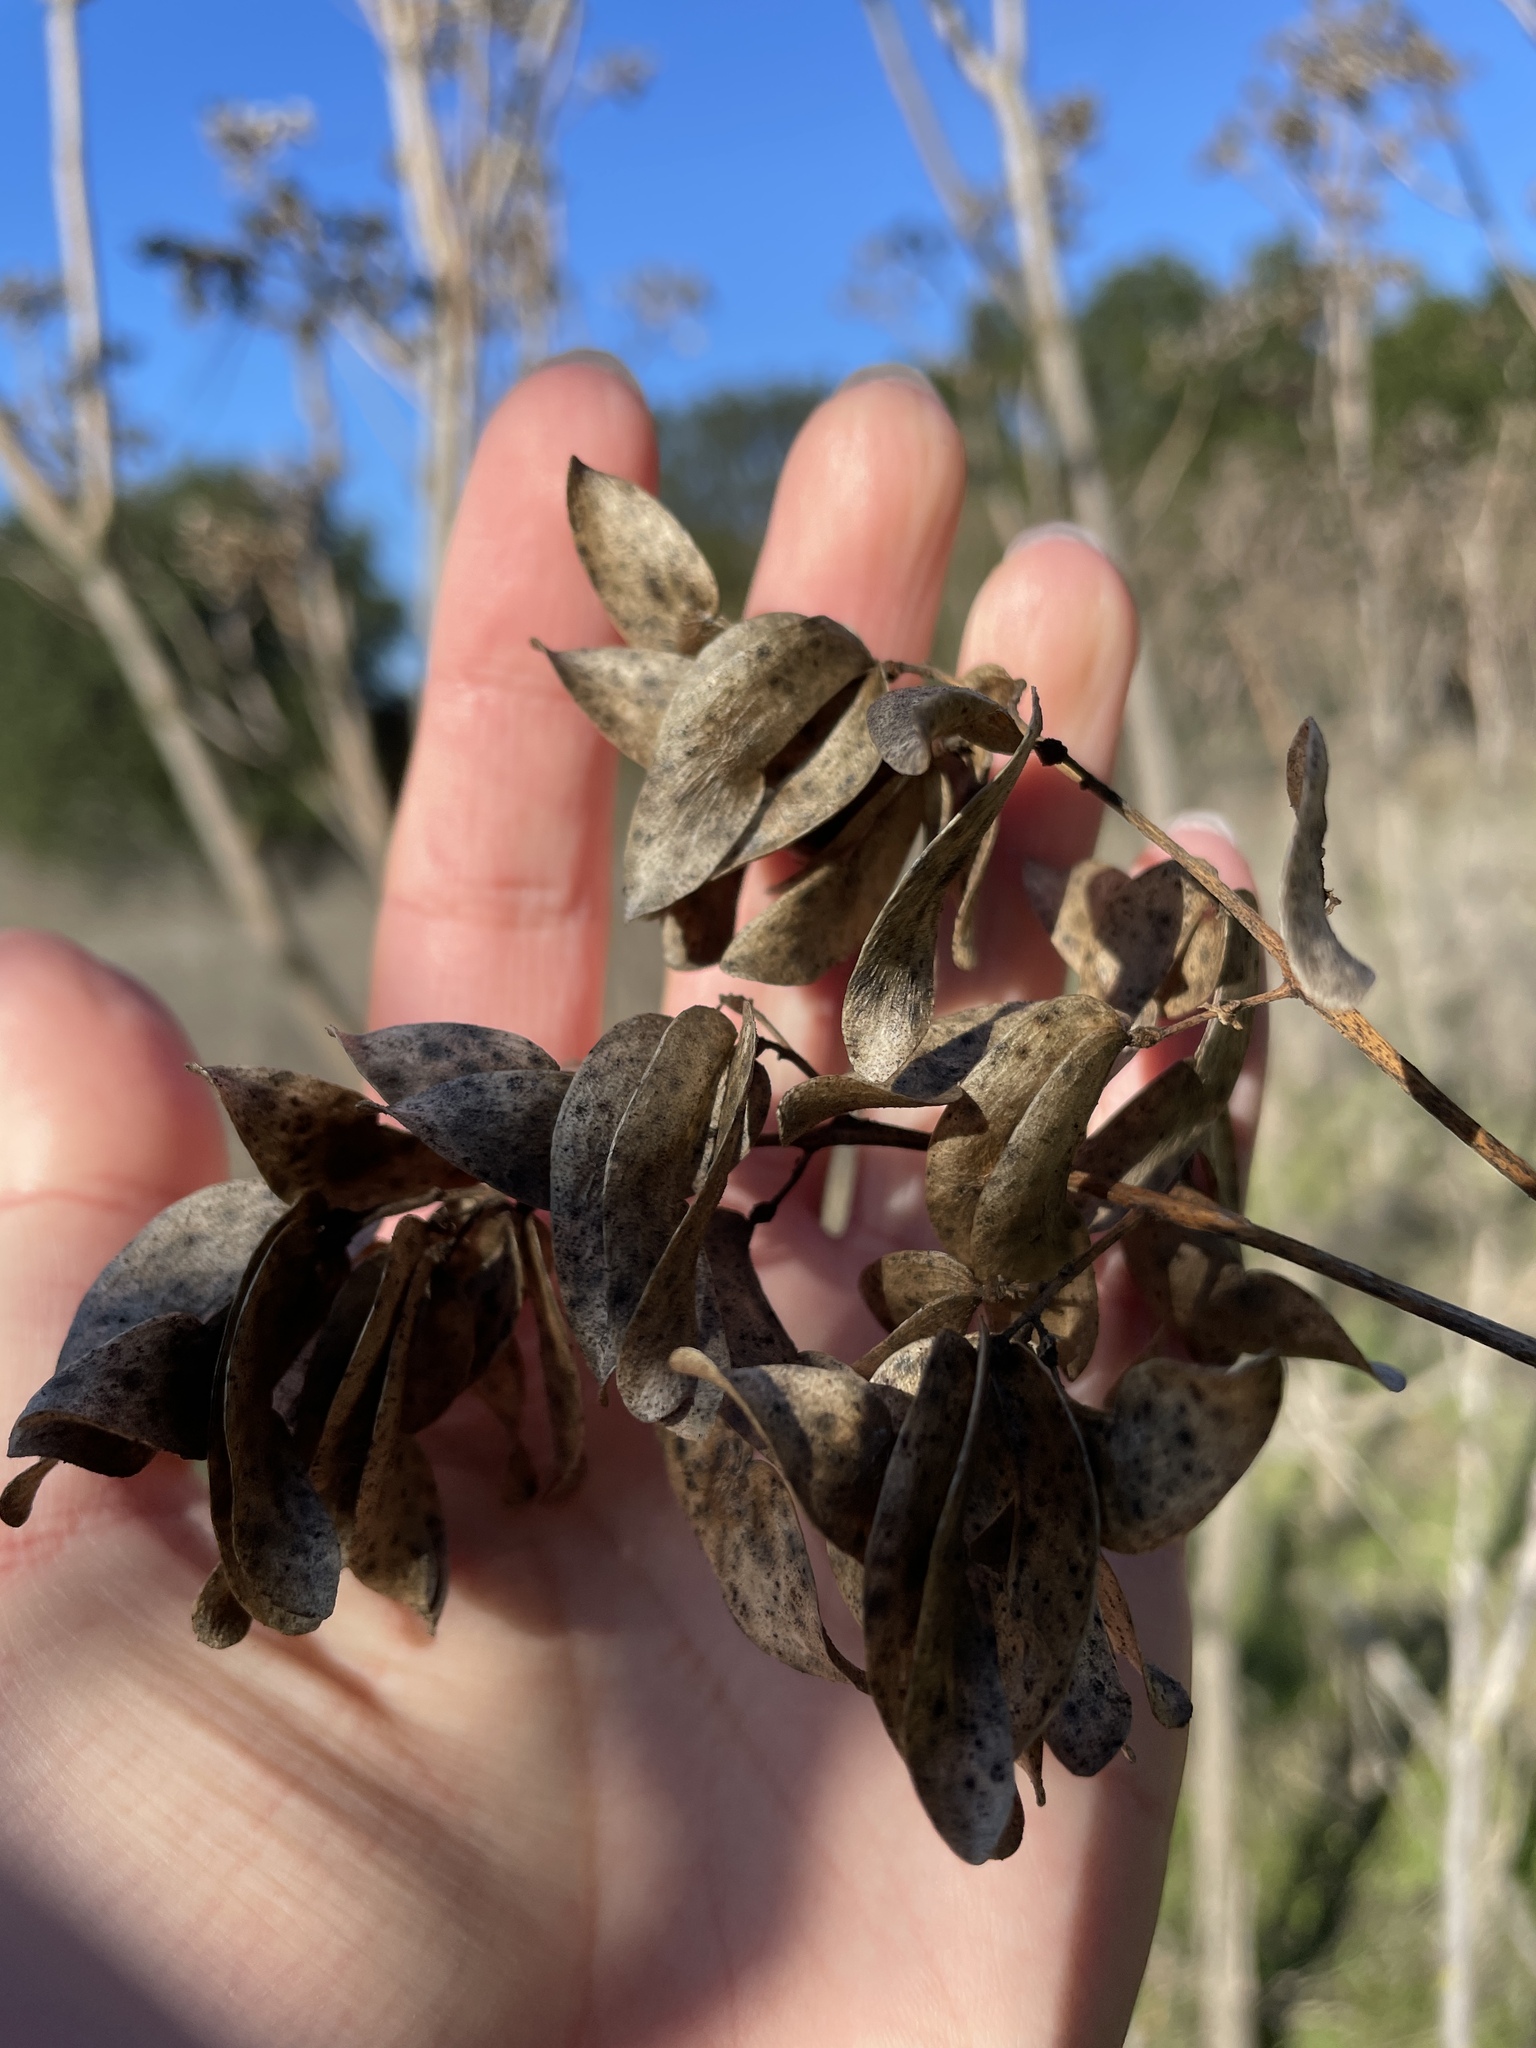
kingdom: Plantae
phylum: Tracheophyta
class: Magnoliopsida
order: Sapindales
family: Simaroubaceae
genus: Ailanthus
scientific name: Ailanthus altissima
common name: Tree-of-heaven
